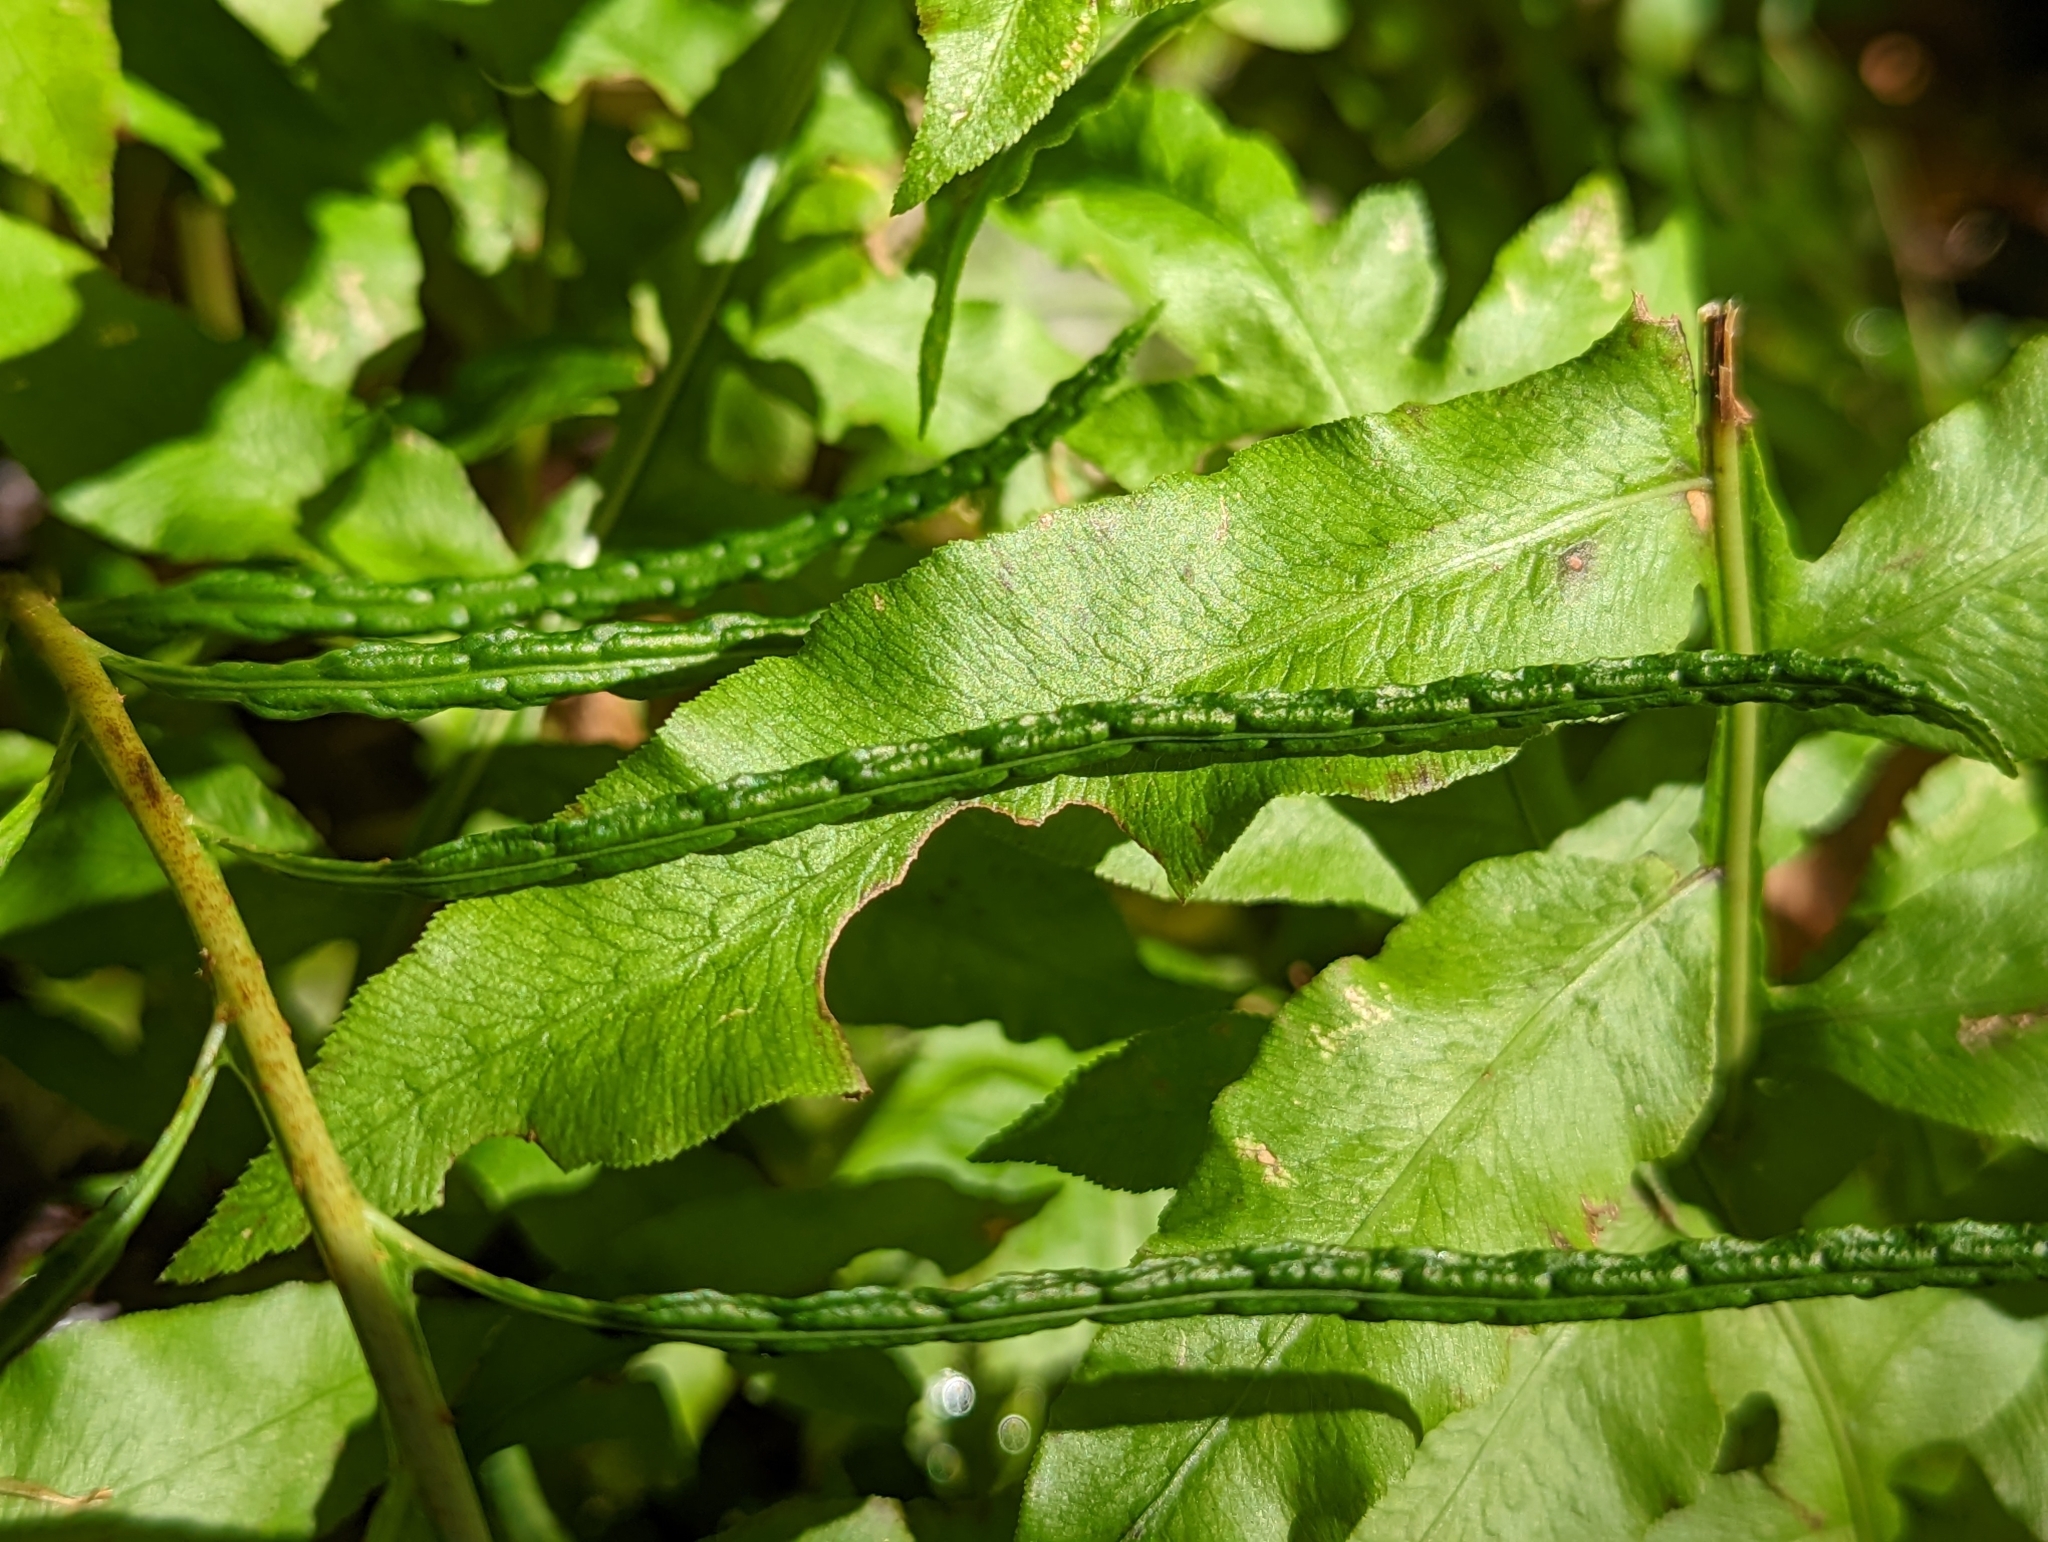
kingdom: Plantae
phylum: Tracheophyta
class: Polypodiopsida
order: Polypodiales
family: Blechnaceae
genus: Lorinseria
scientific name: Lorinseria areolata
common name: Dwarf chain fern
